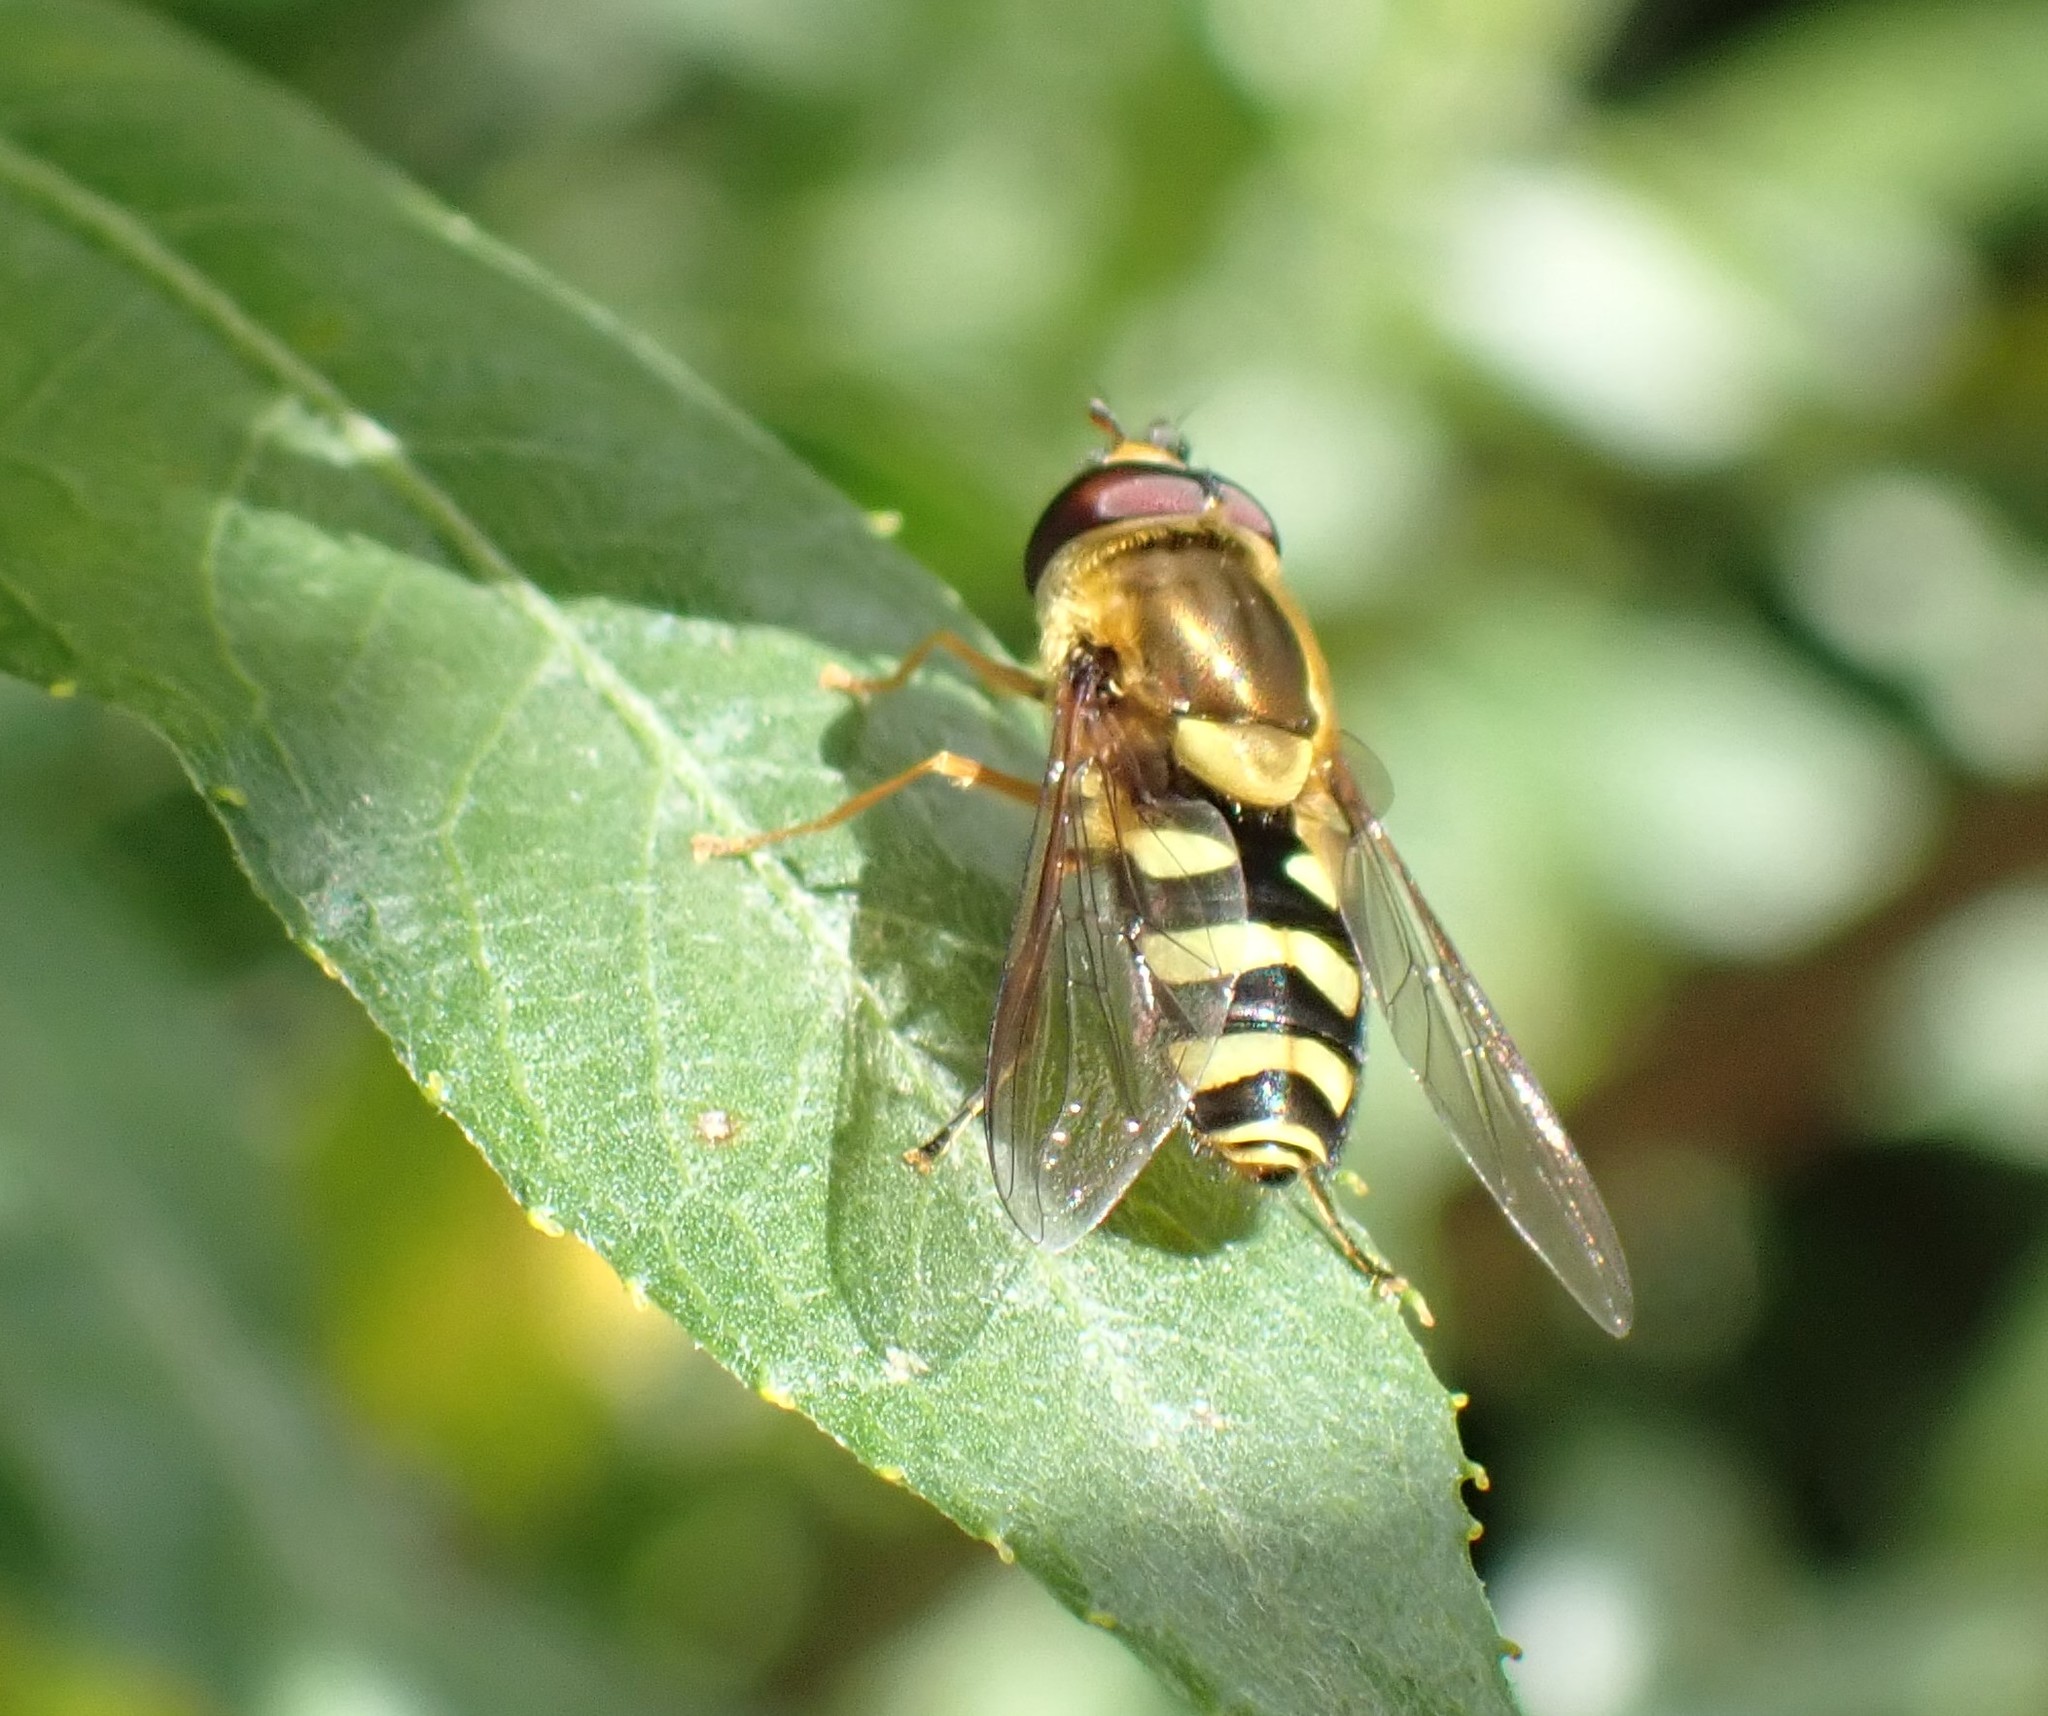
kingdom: Animalia
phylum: Arthropoda
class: Insecta
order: Diptera
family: Syrphidae
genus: Syrphus
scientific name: Syrphus opinator
